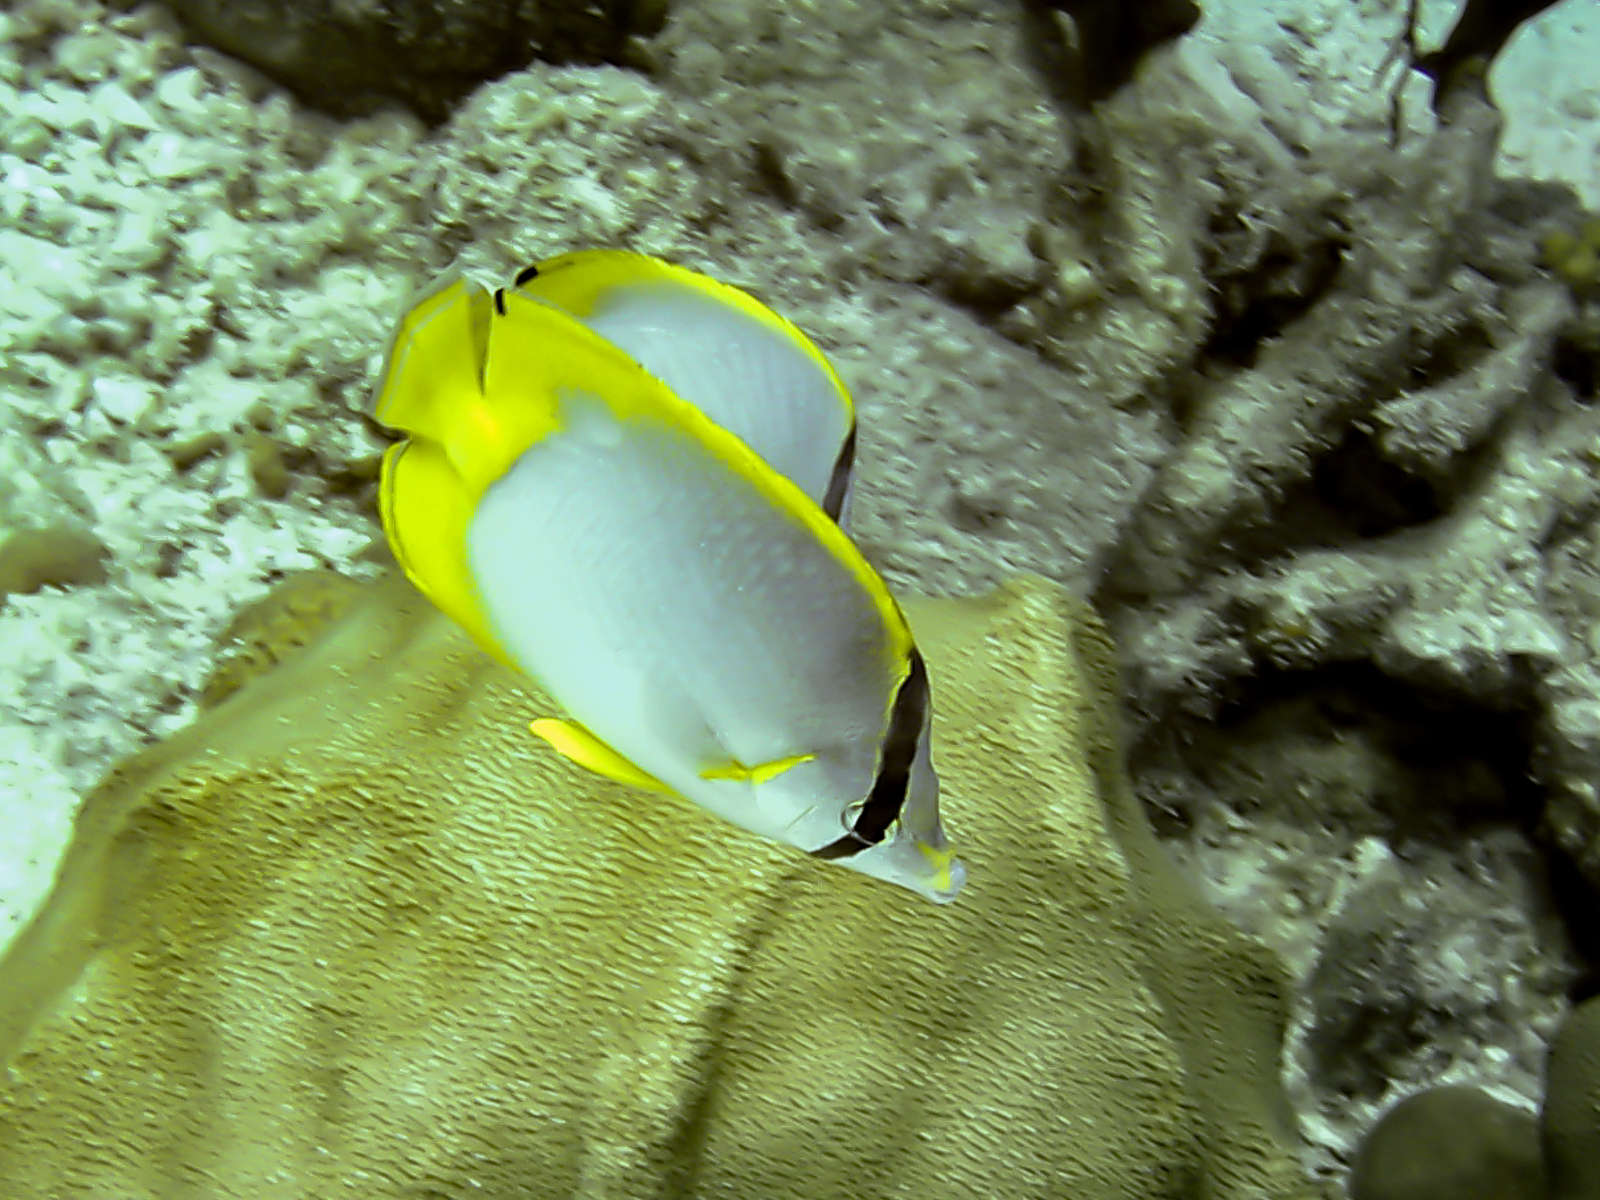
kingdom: Animalia
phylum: Chordata
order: Perciformes
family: Chaetodontidae
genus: Chaetodon
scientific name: Chaetodon ocellatus
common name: Spotfin butterflyfish
